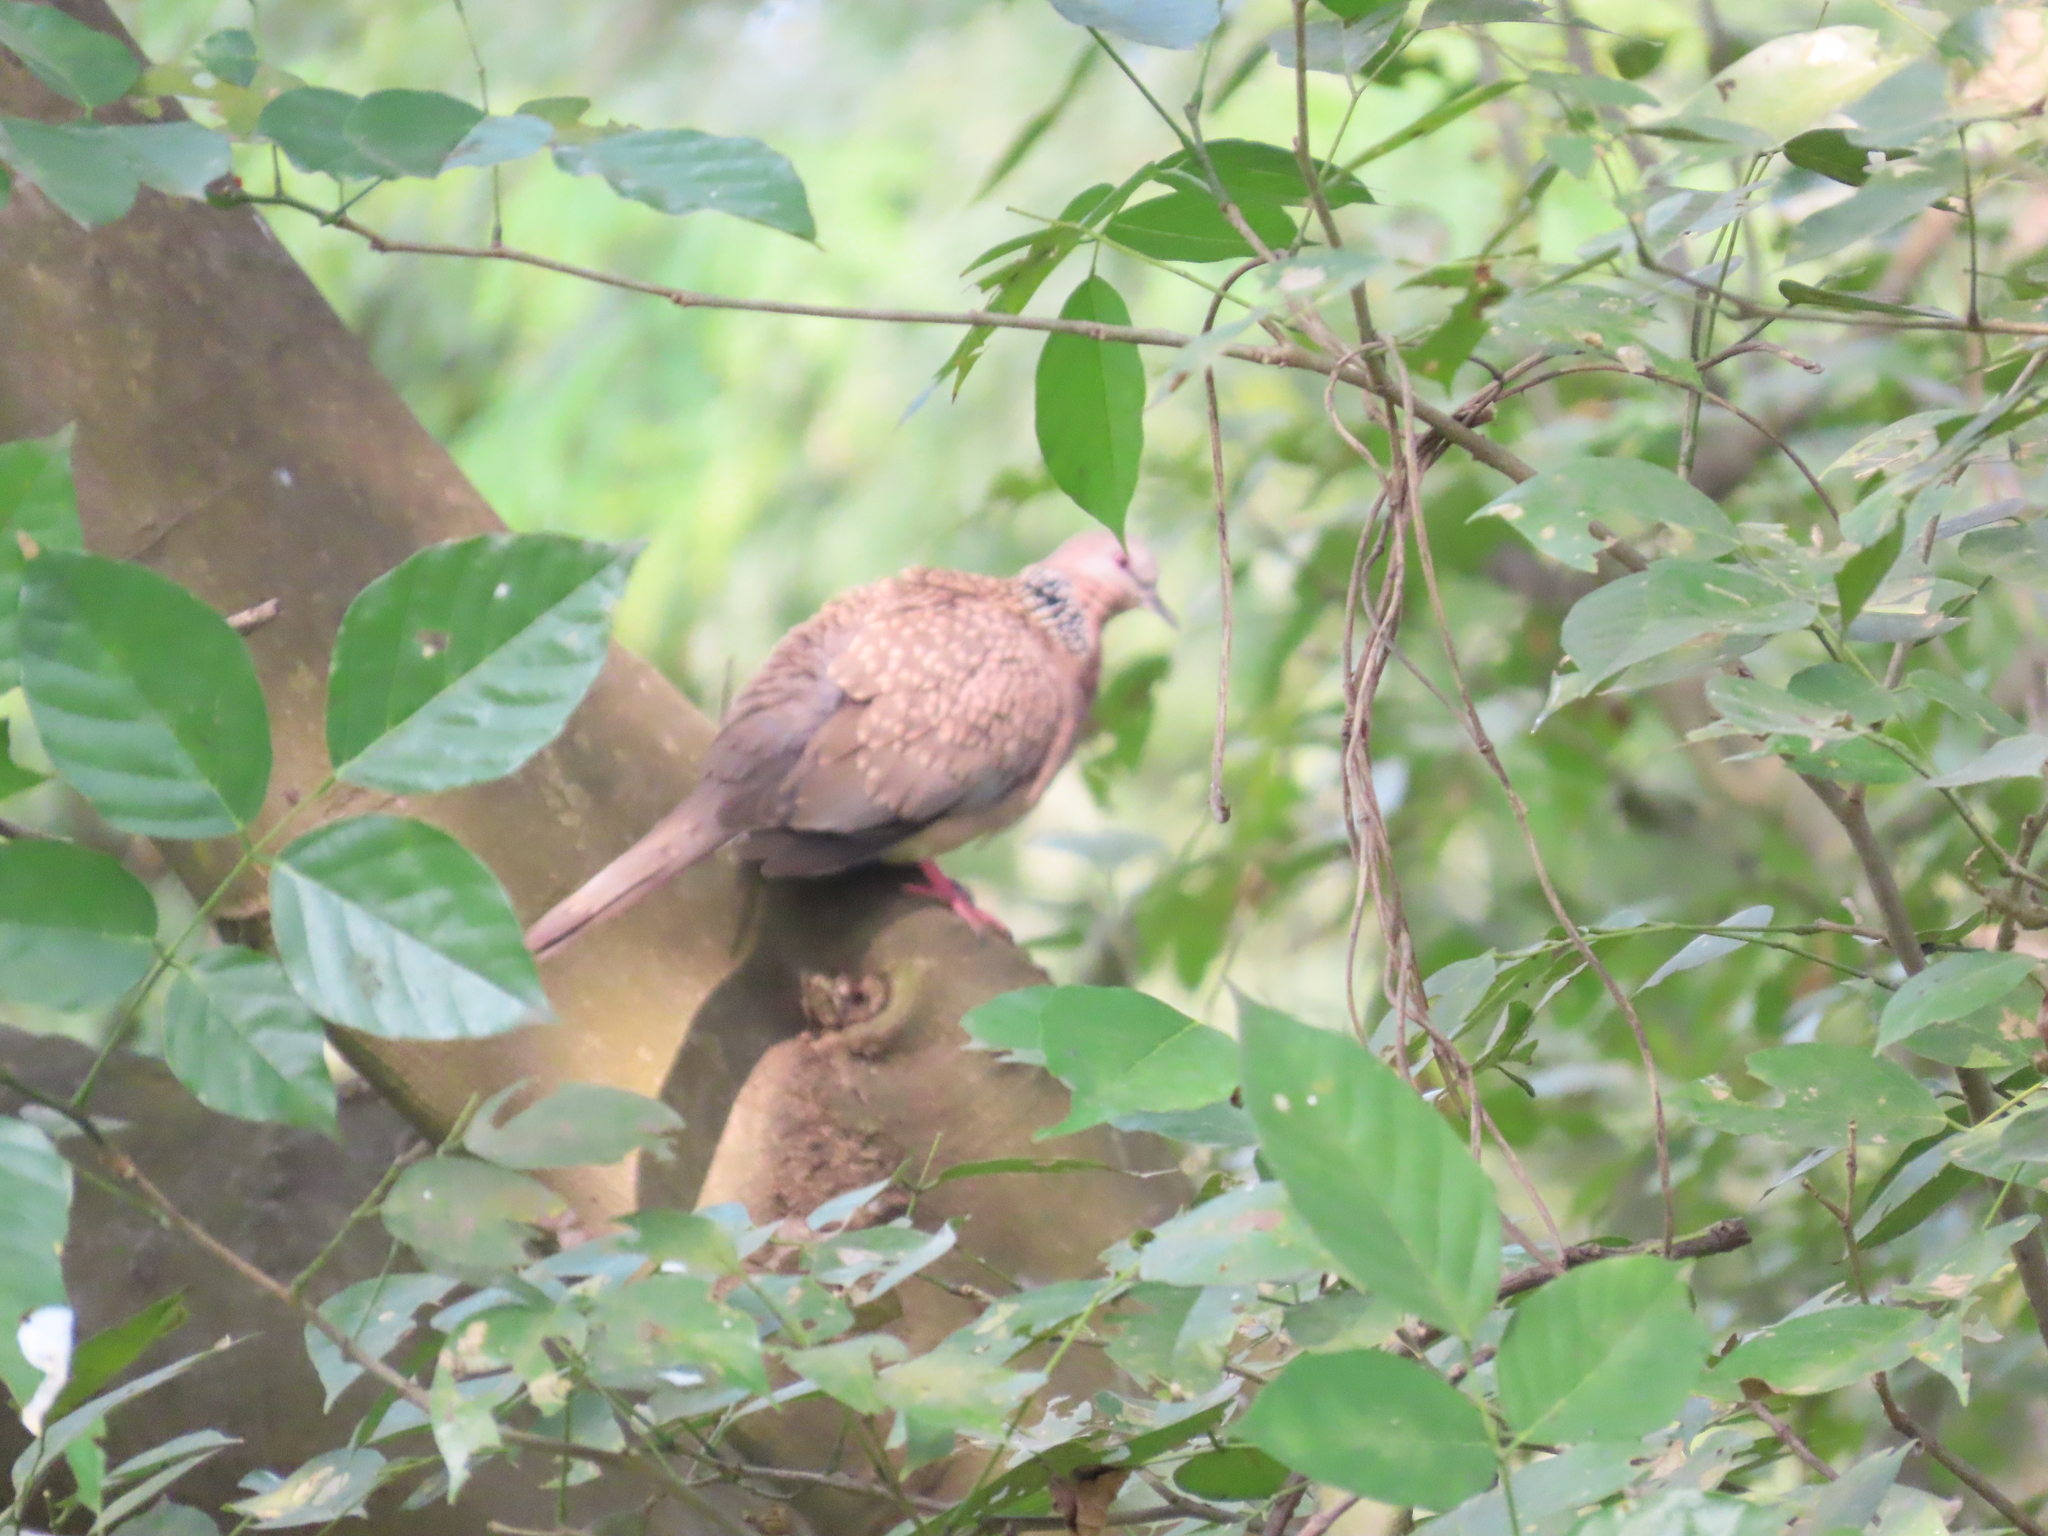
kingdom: Animalia
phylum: Chordata
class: Aves
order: Columbiformes
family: Columbidae
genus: Spilopelia
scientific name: Spilopelia chinensis
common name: Spotted dove
